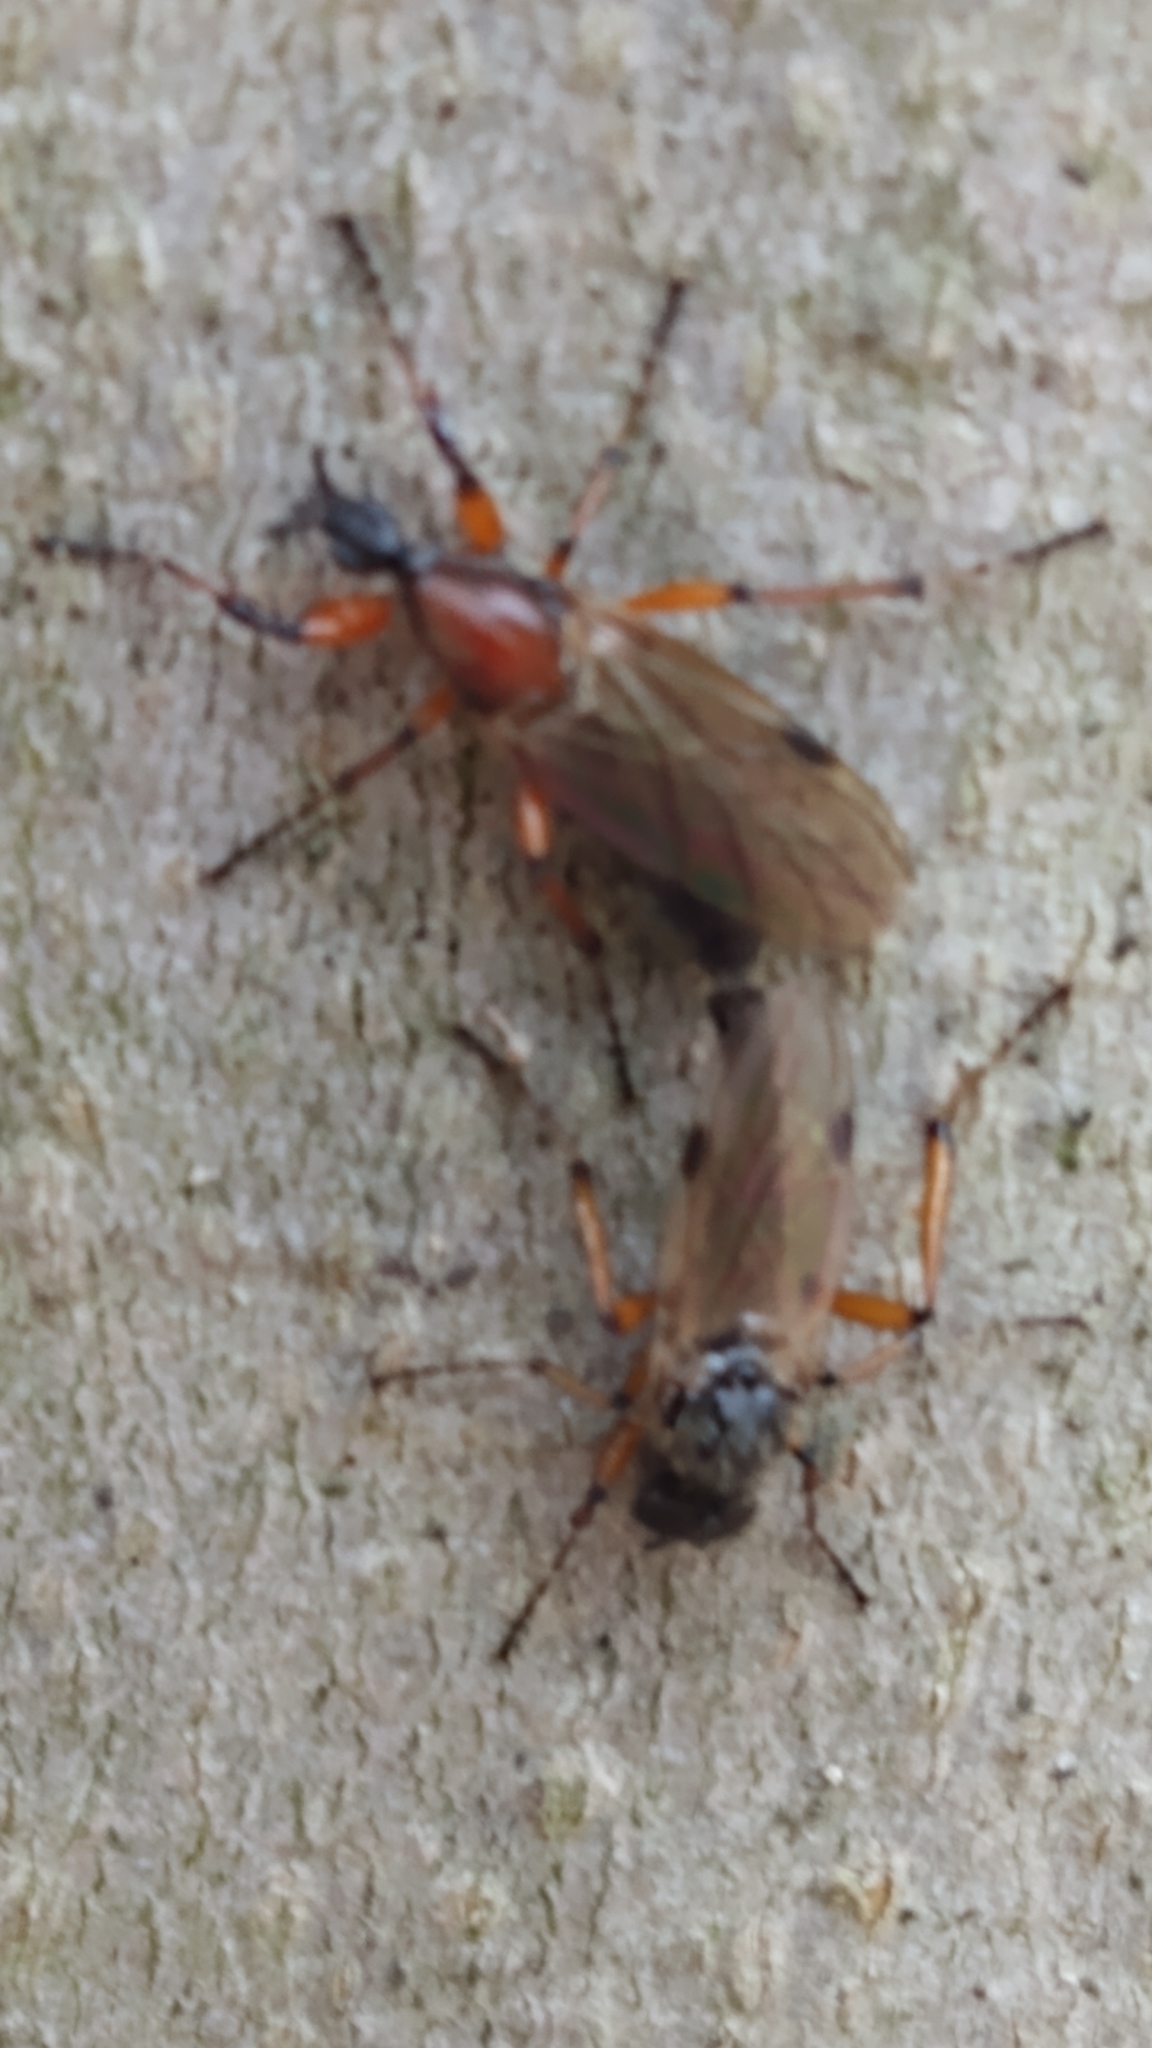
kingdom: Animalia
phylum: Arthropoda
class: Insecta
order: Diptera
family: Bibionidae
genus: Bibio
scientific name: Bibio articulatus
